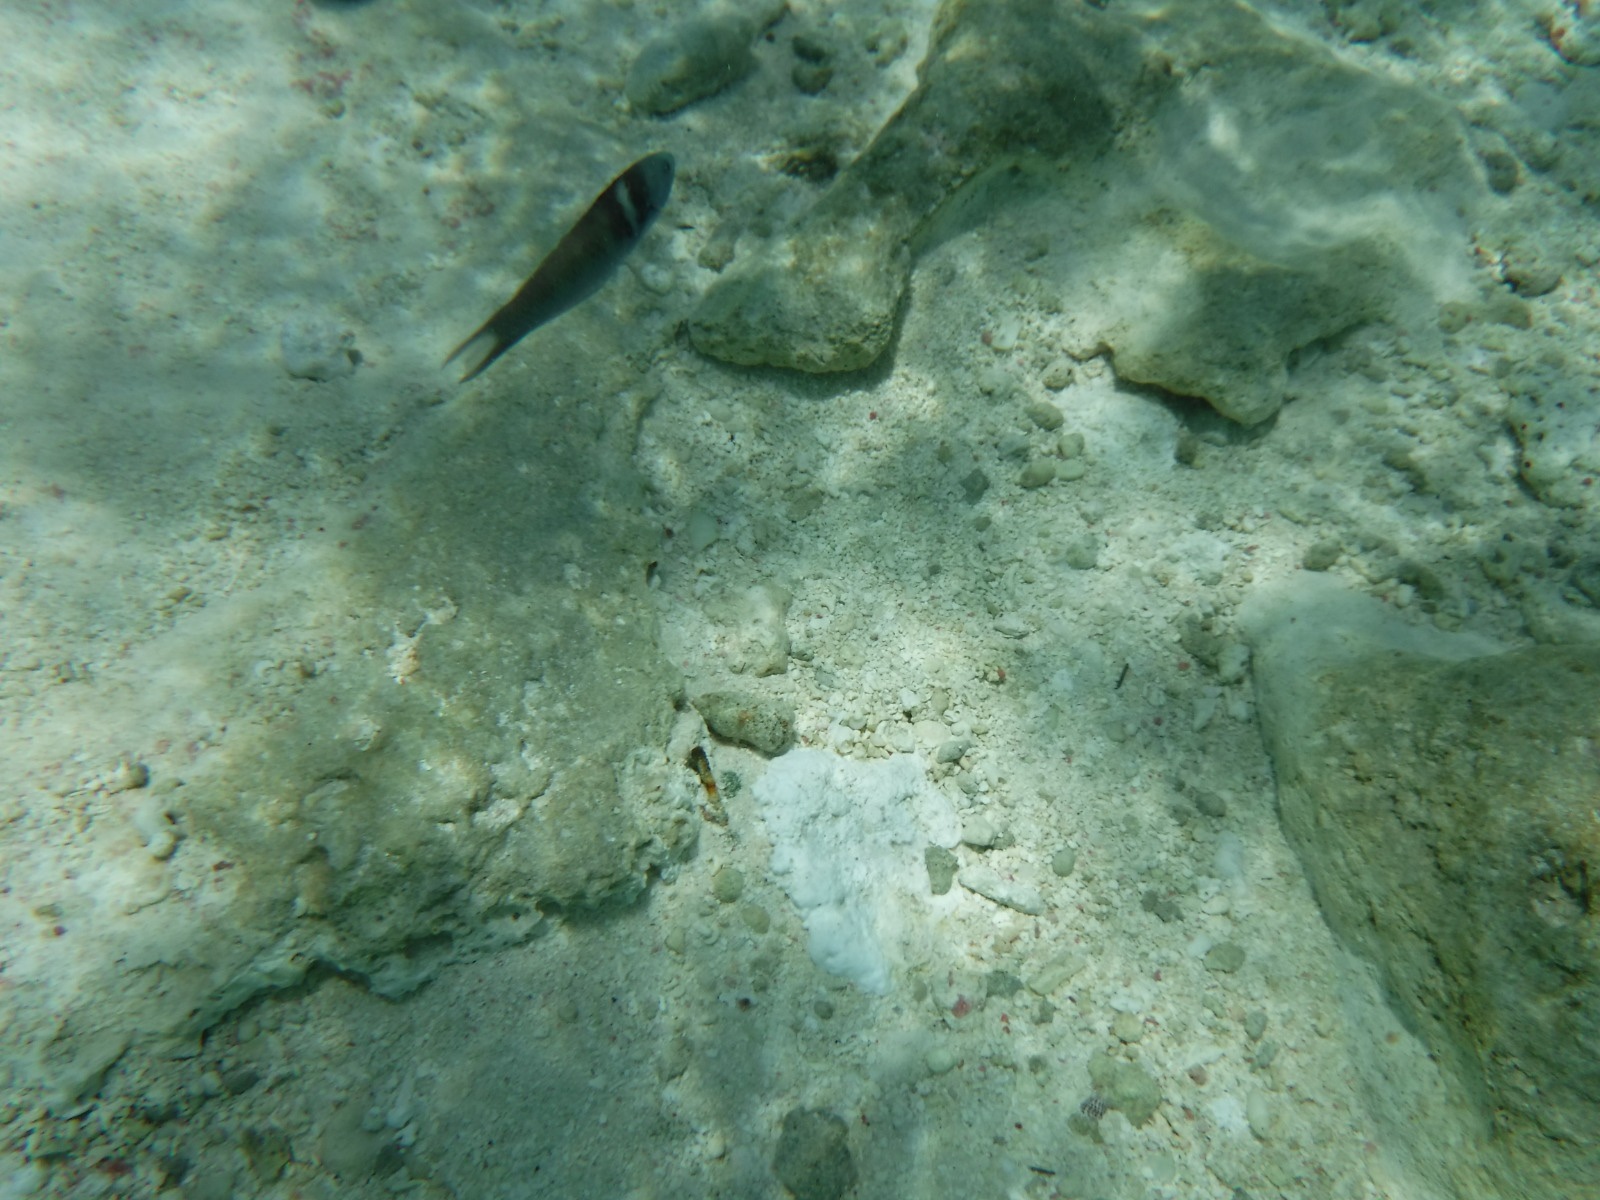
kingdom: Animalia
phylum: Chordata
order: Perciformes
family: Labridae
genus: Thalassoma
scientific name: Thalassoma bifasciatum
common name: Bluehead wrasse
